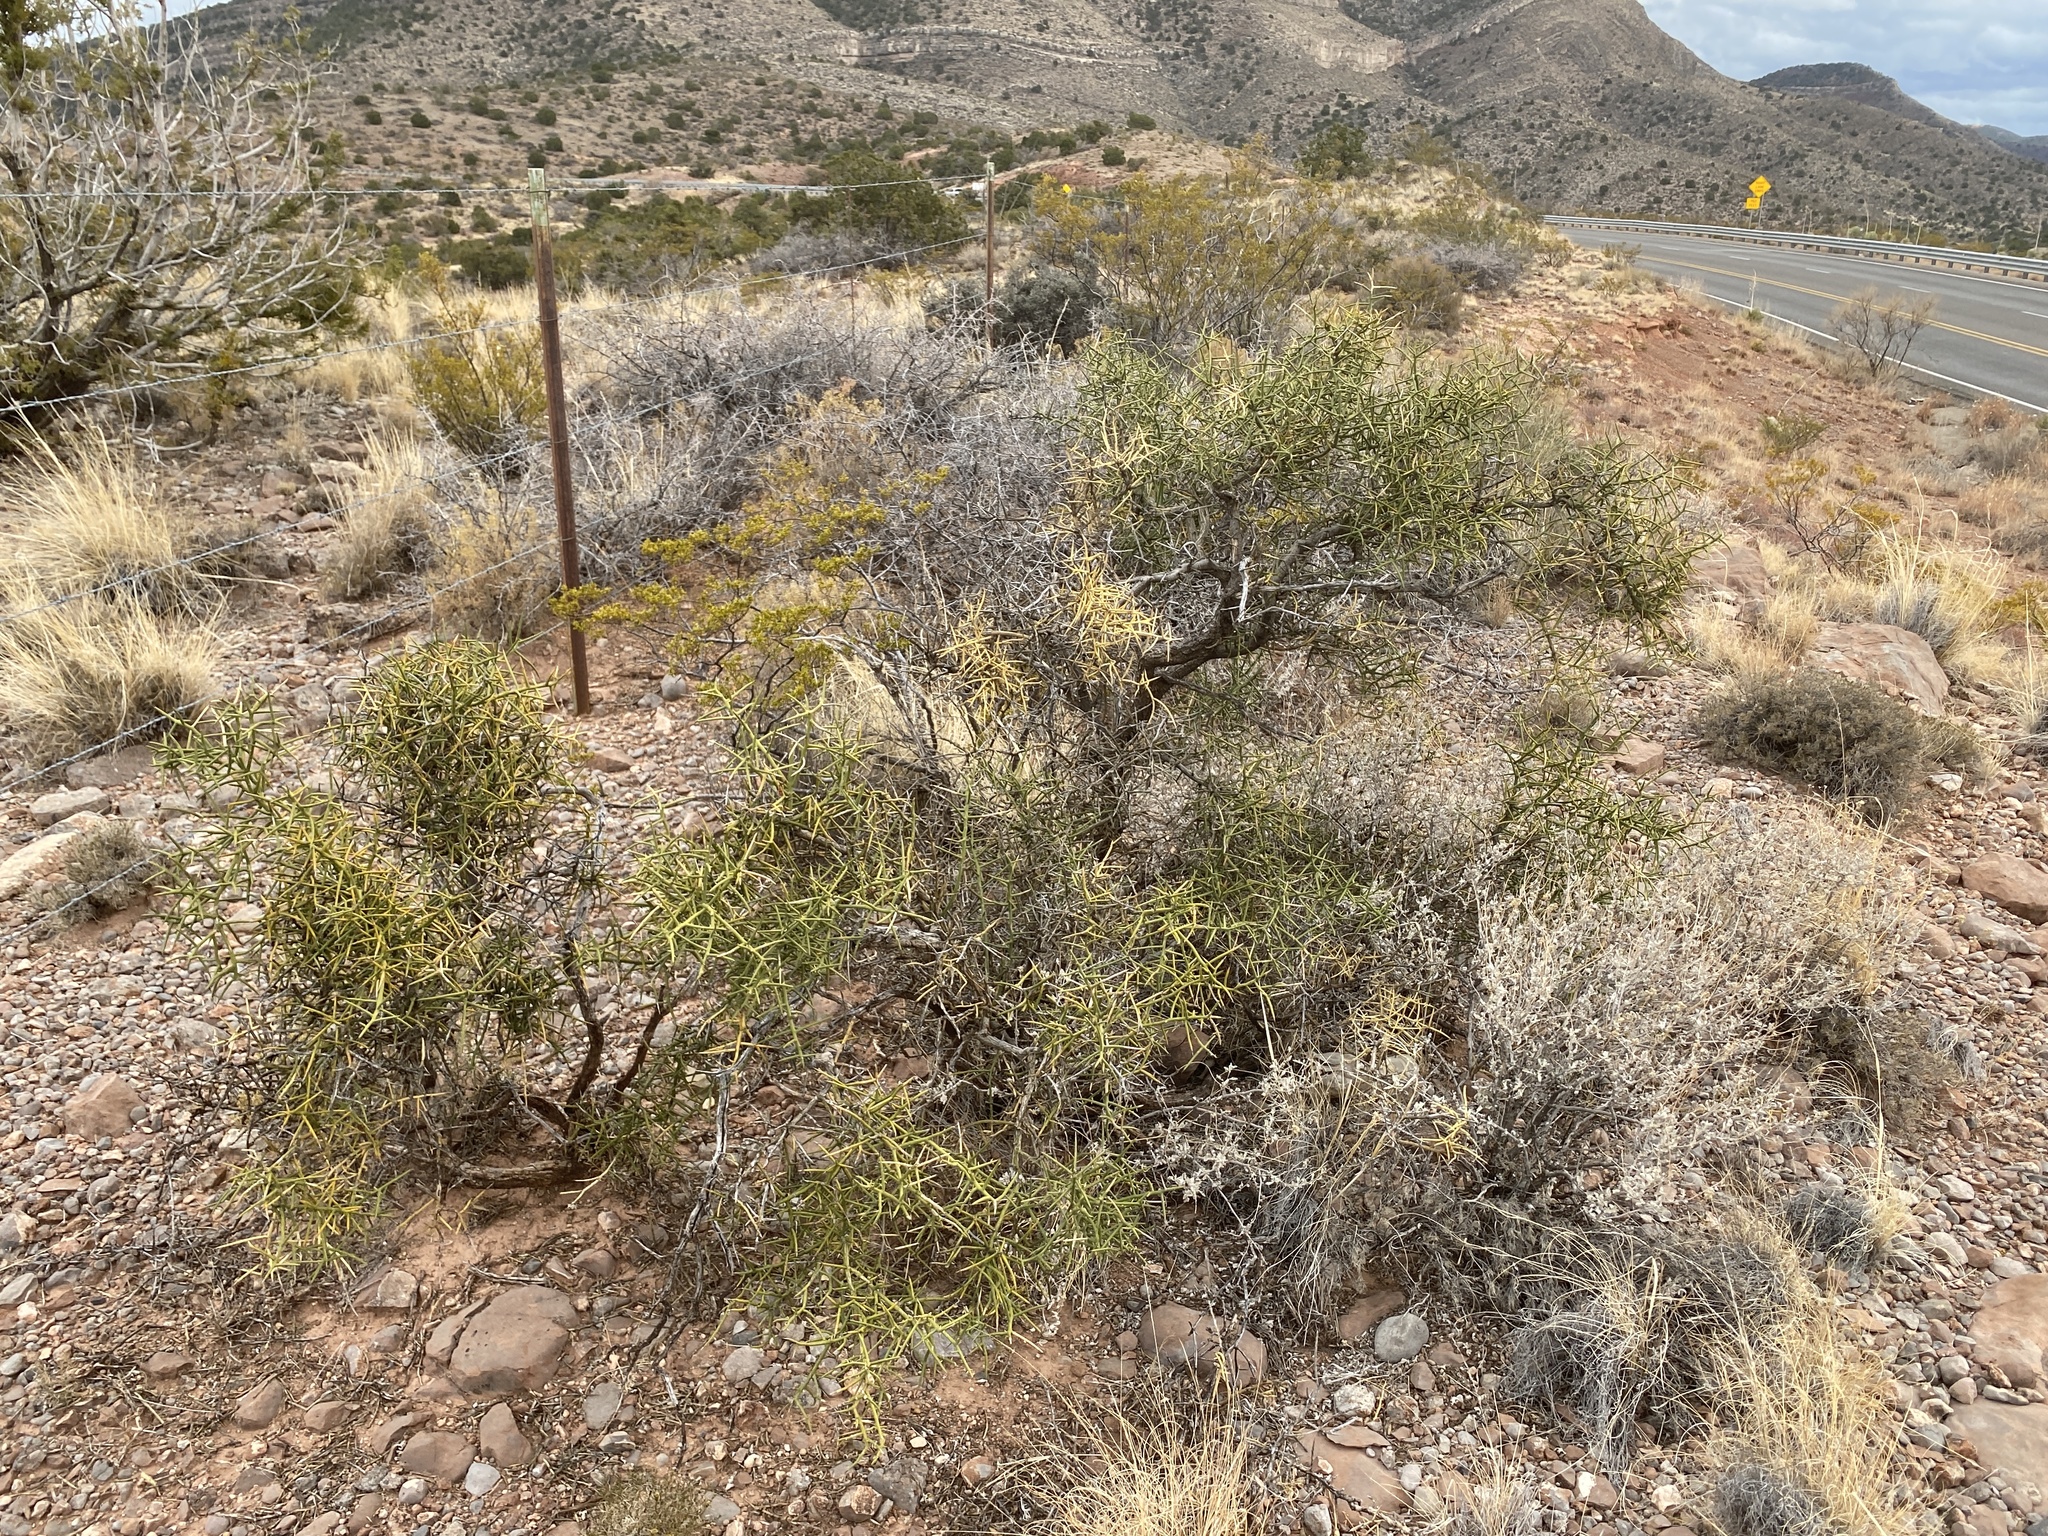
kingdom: Plantae
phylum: Tracheophyta
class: Magnoliopsida
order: Brassicales
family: Koeberliniaceae
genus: Koeberlinia
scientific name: Koeberlinia spinosa
